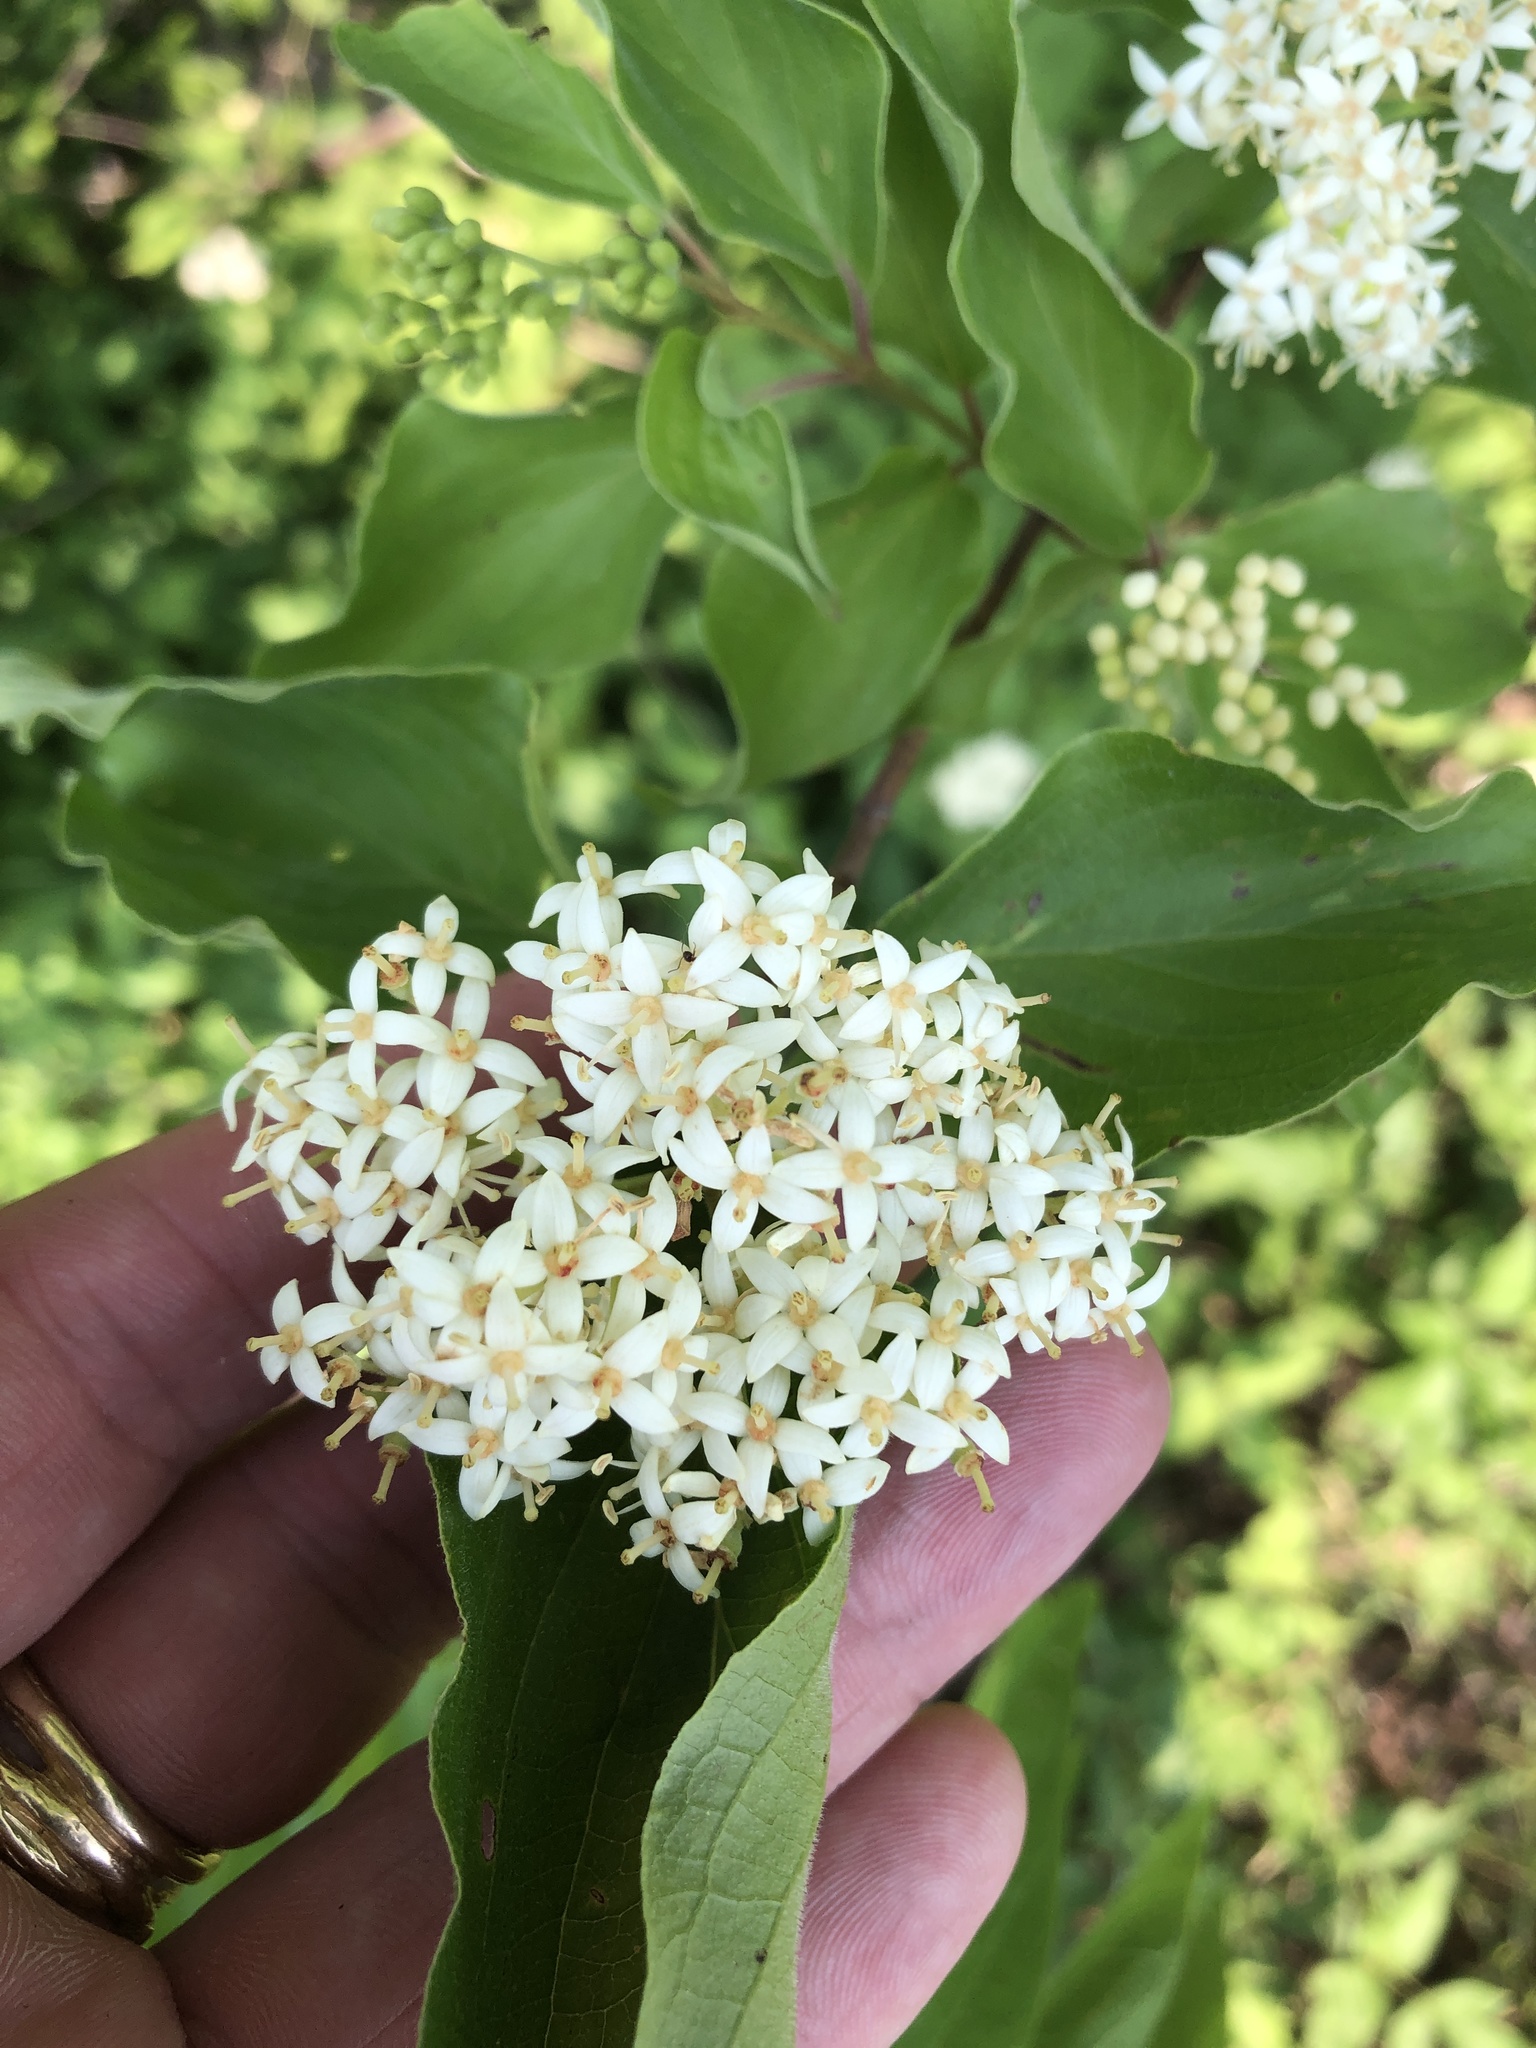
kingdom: Plantae
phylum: Tracheophyta
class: Magnoliopsida
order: Cornales
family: Cornaceae
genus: Cornus
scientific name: Cornus drummondii
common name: Rough-leaf dogwood
